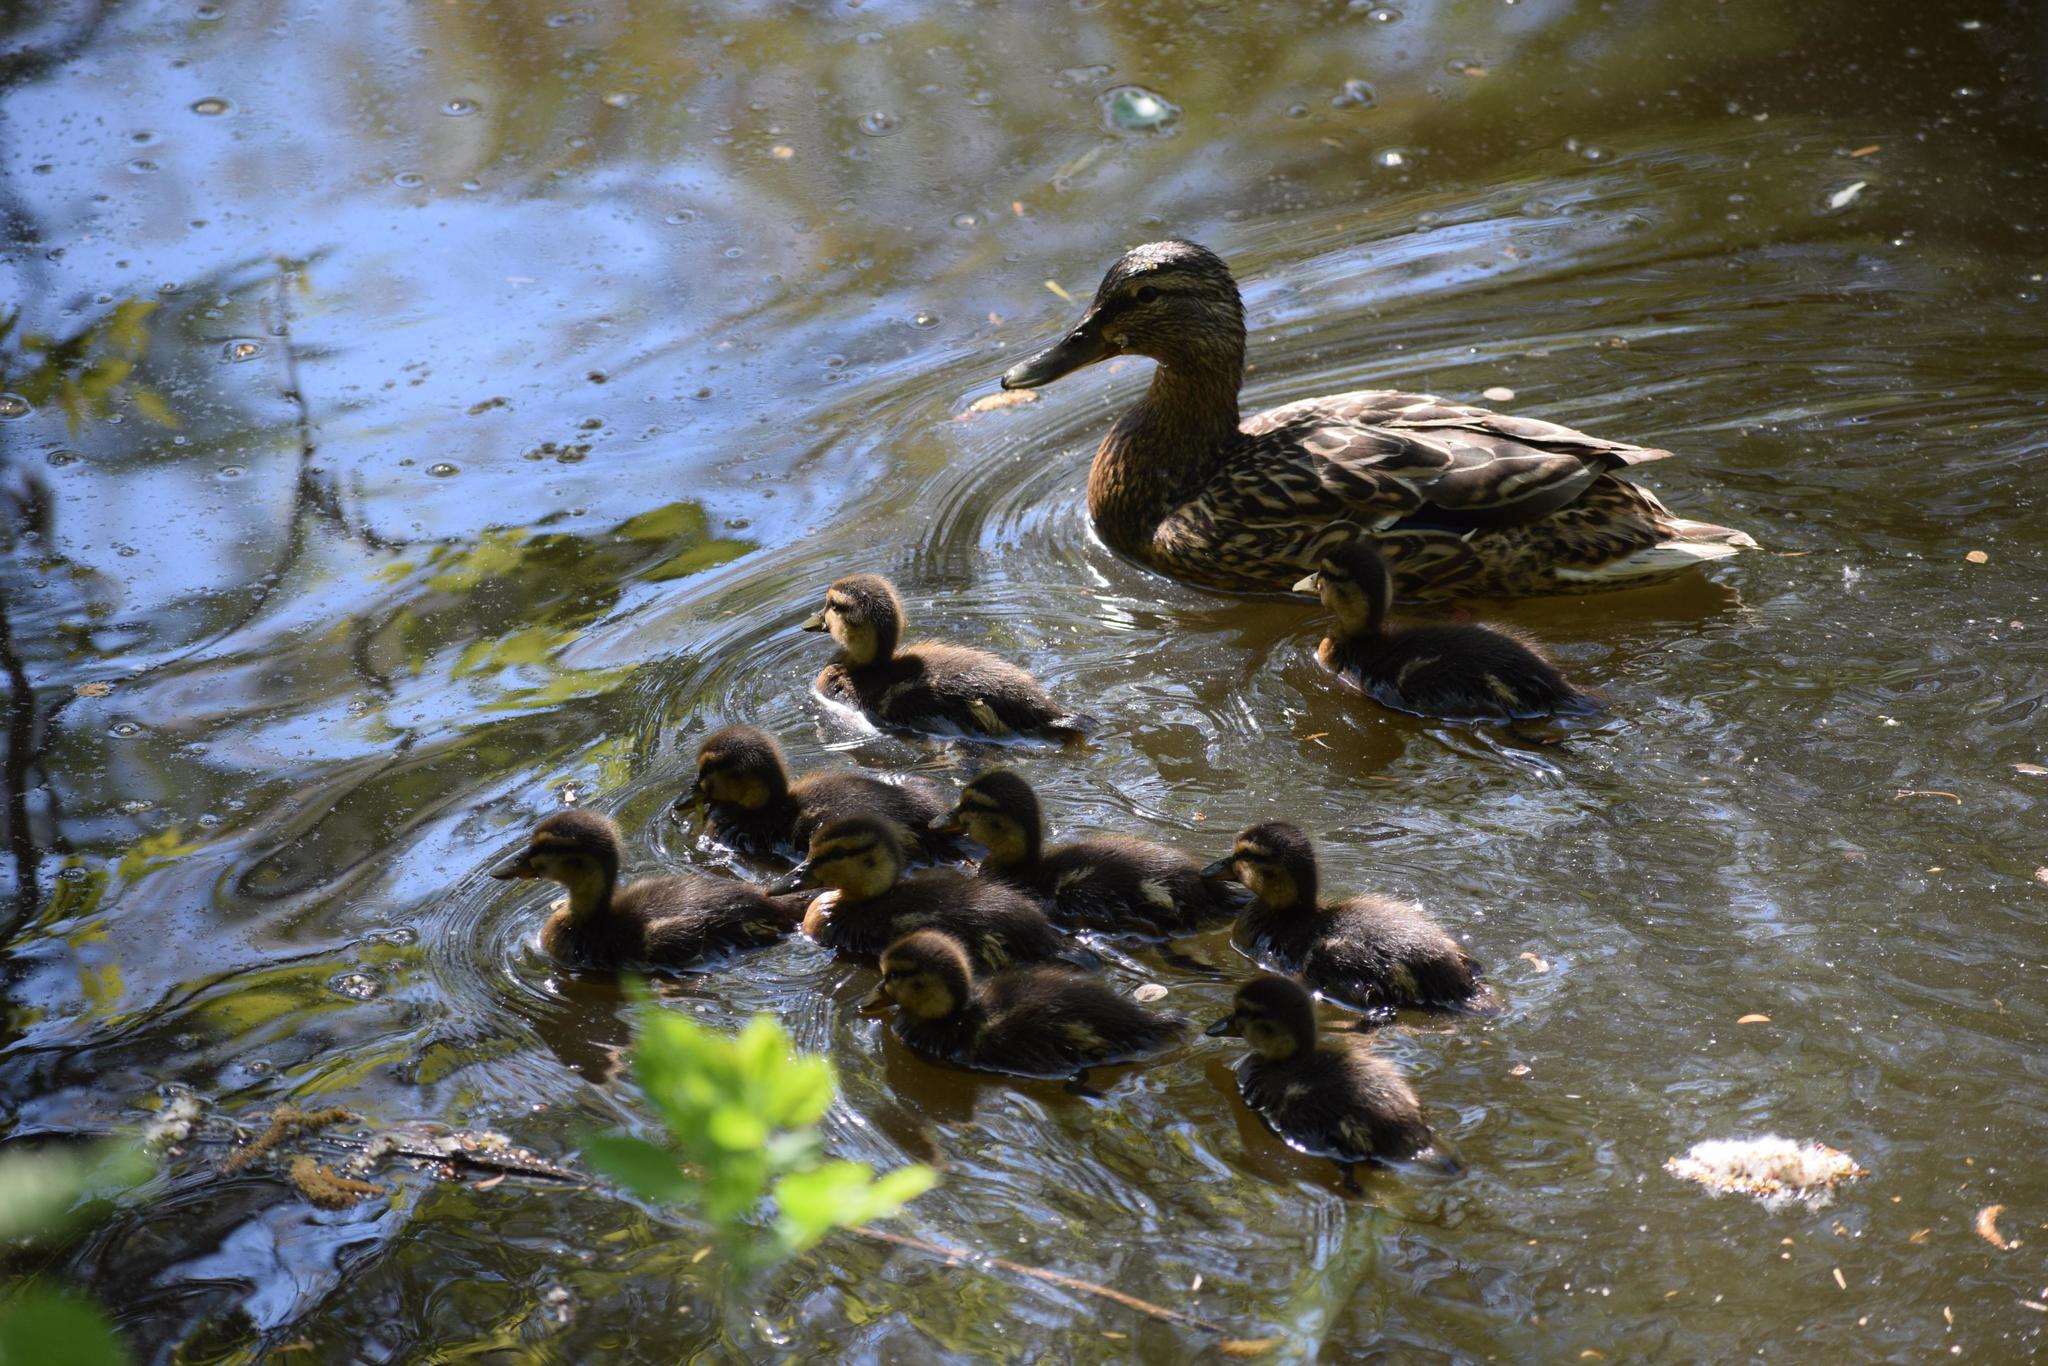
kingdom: Animalia
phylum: Chordata
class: Aves
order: Anseriformes
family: Anatidae
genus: Anas
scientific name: Anas platyrhynchos
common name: Mallard
